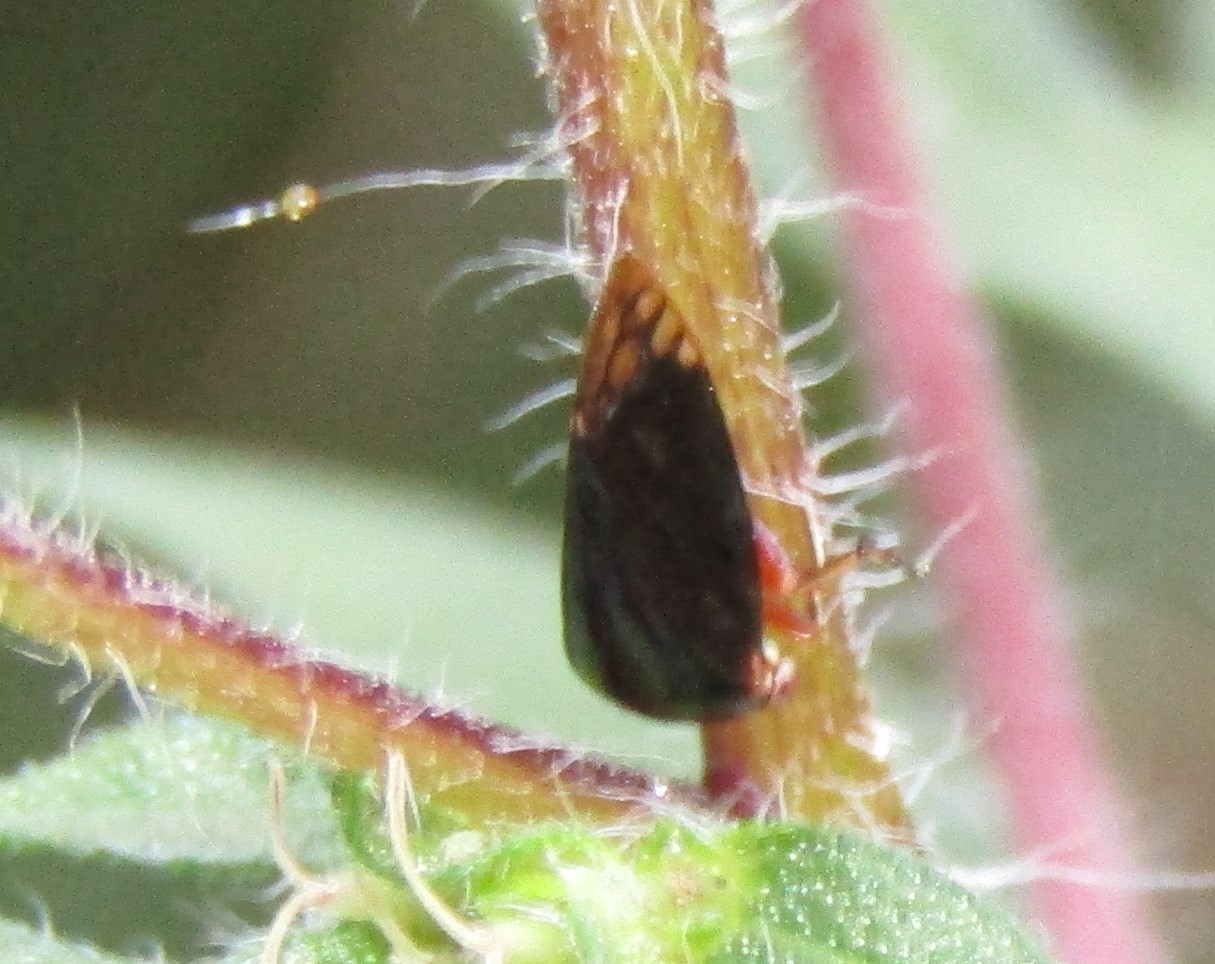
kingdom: Animalia
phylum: Arthropoda
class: Insecta
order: Hemiptera
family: Membracidae
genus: Acutalis
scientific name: Acutalis tartarea
